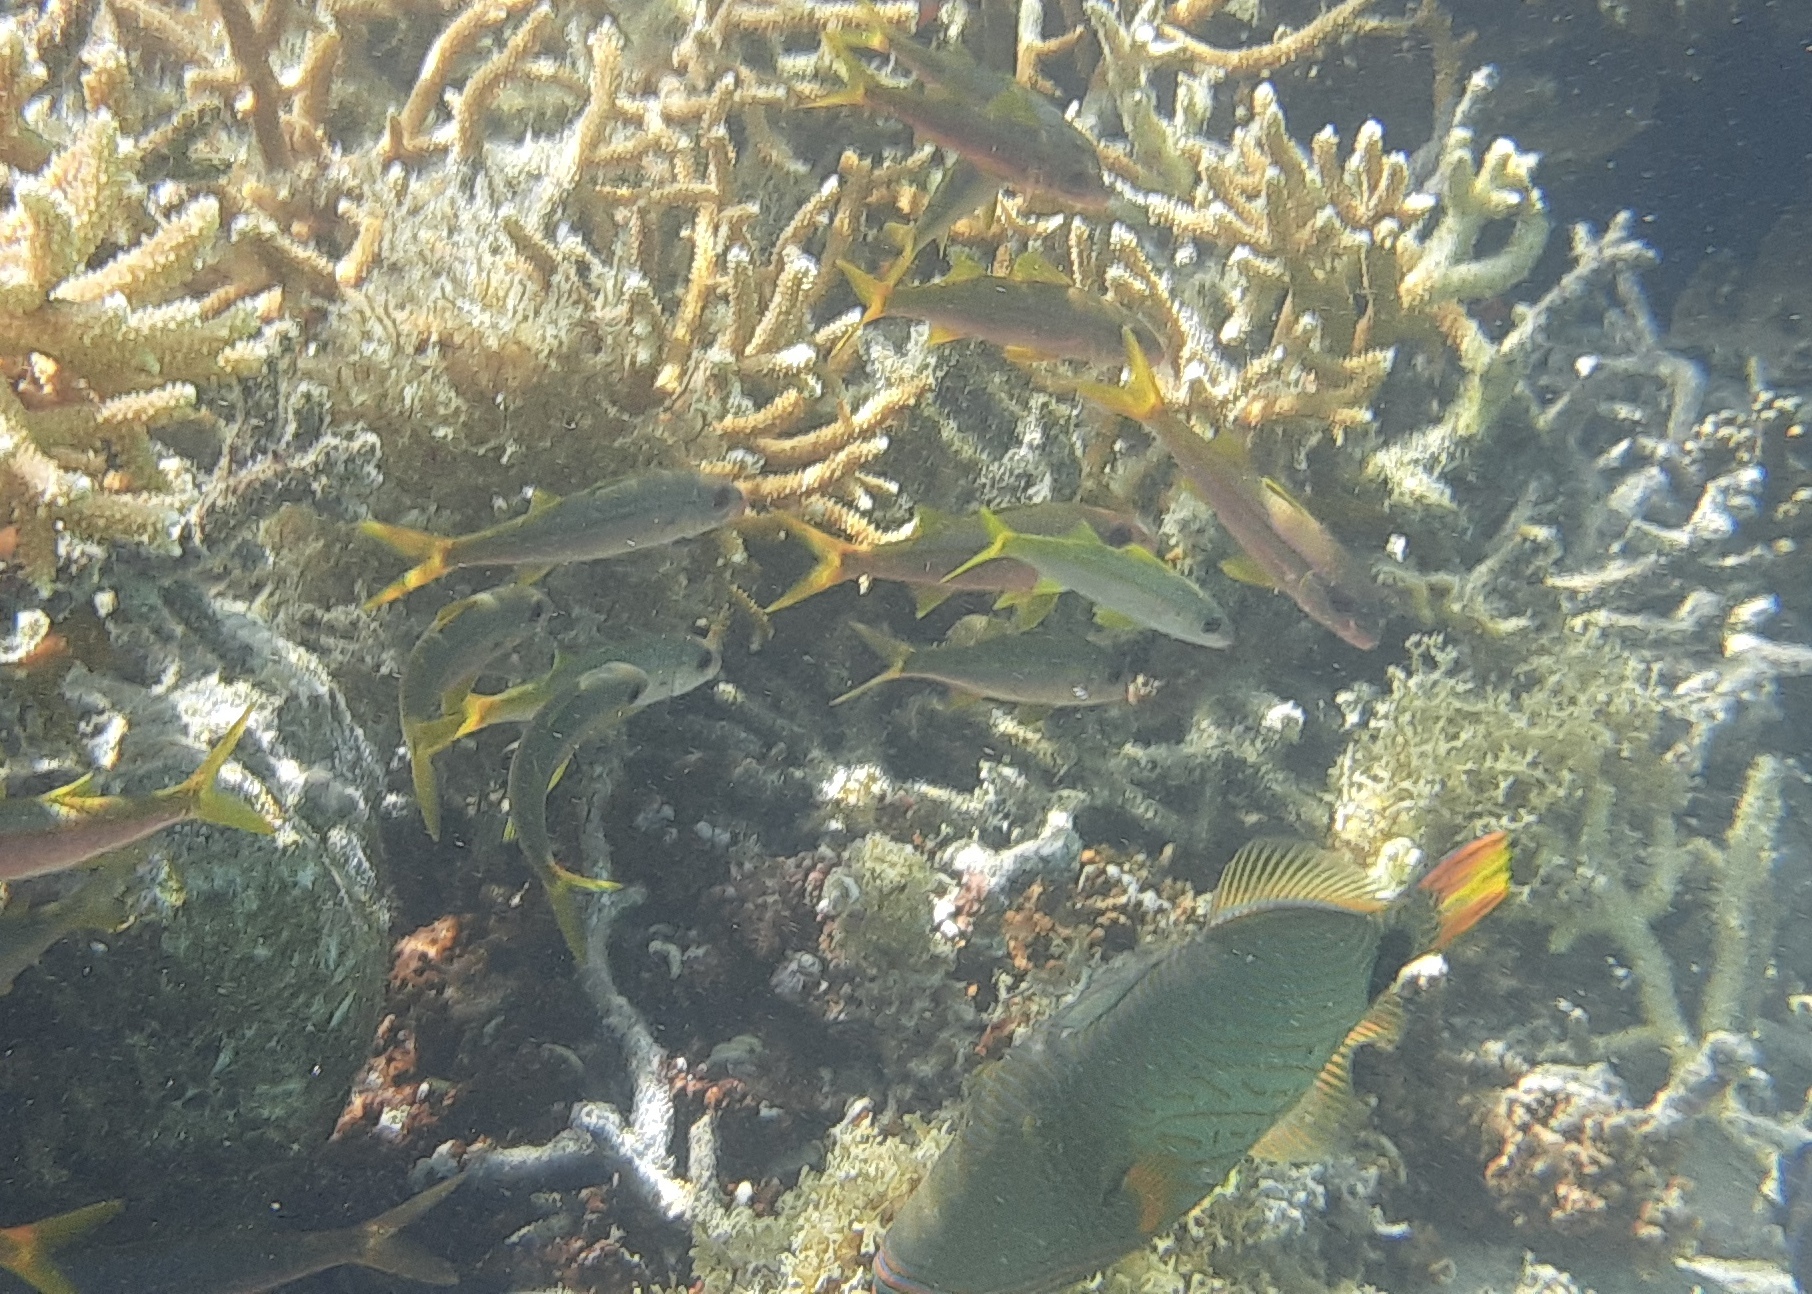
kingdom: Animalia
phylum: Chordata
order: Tetraodontiformes
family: Balistidae
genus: Balistapus
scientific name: Balistapus undulatus
